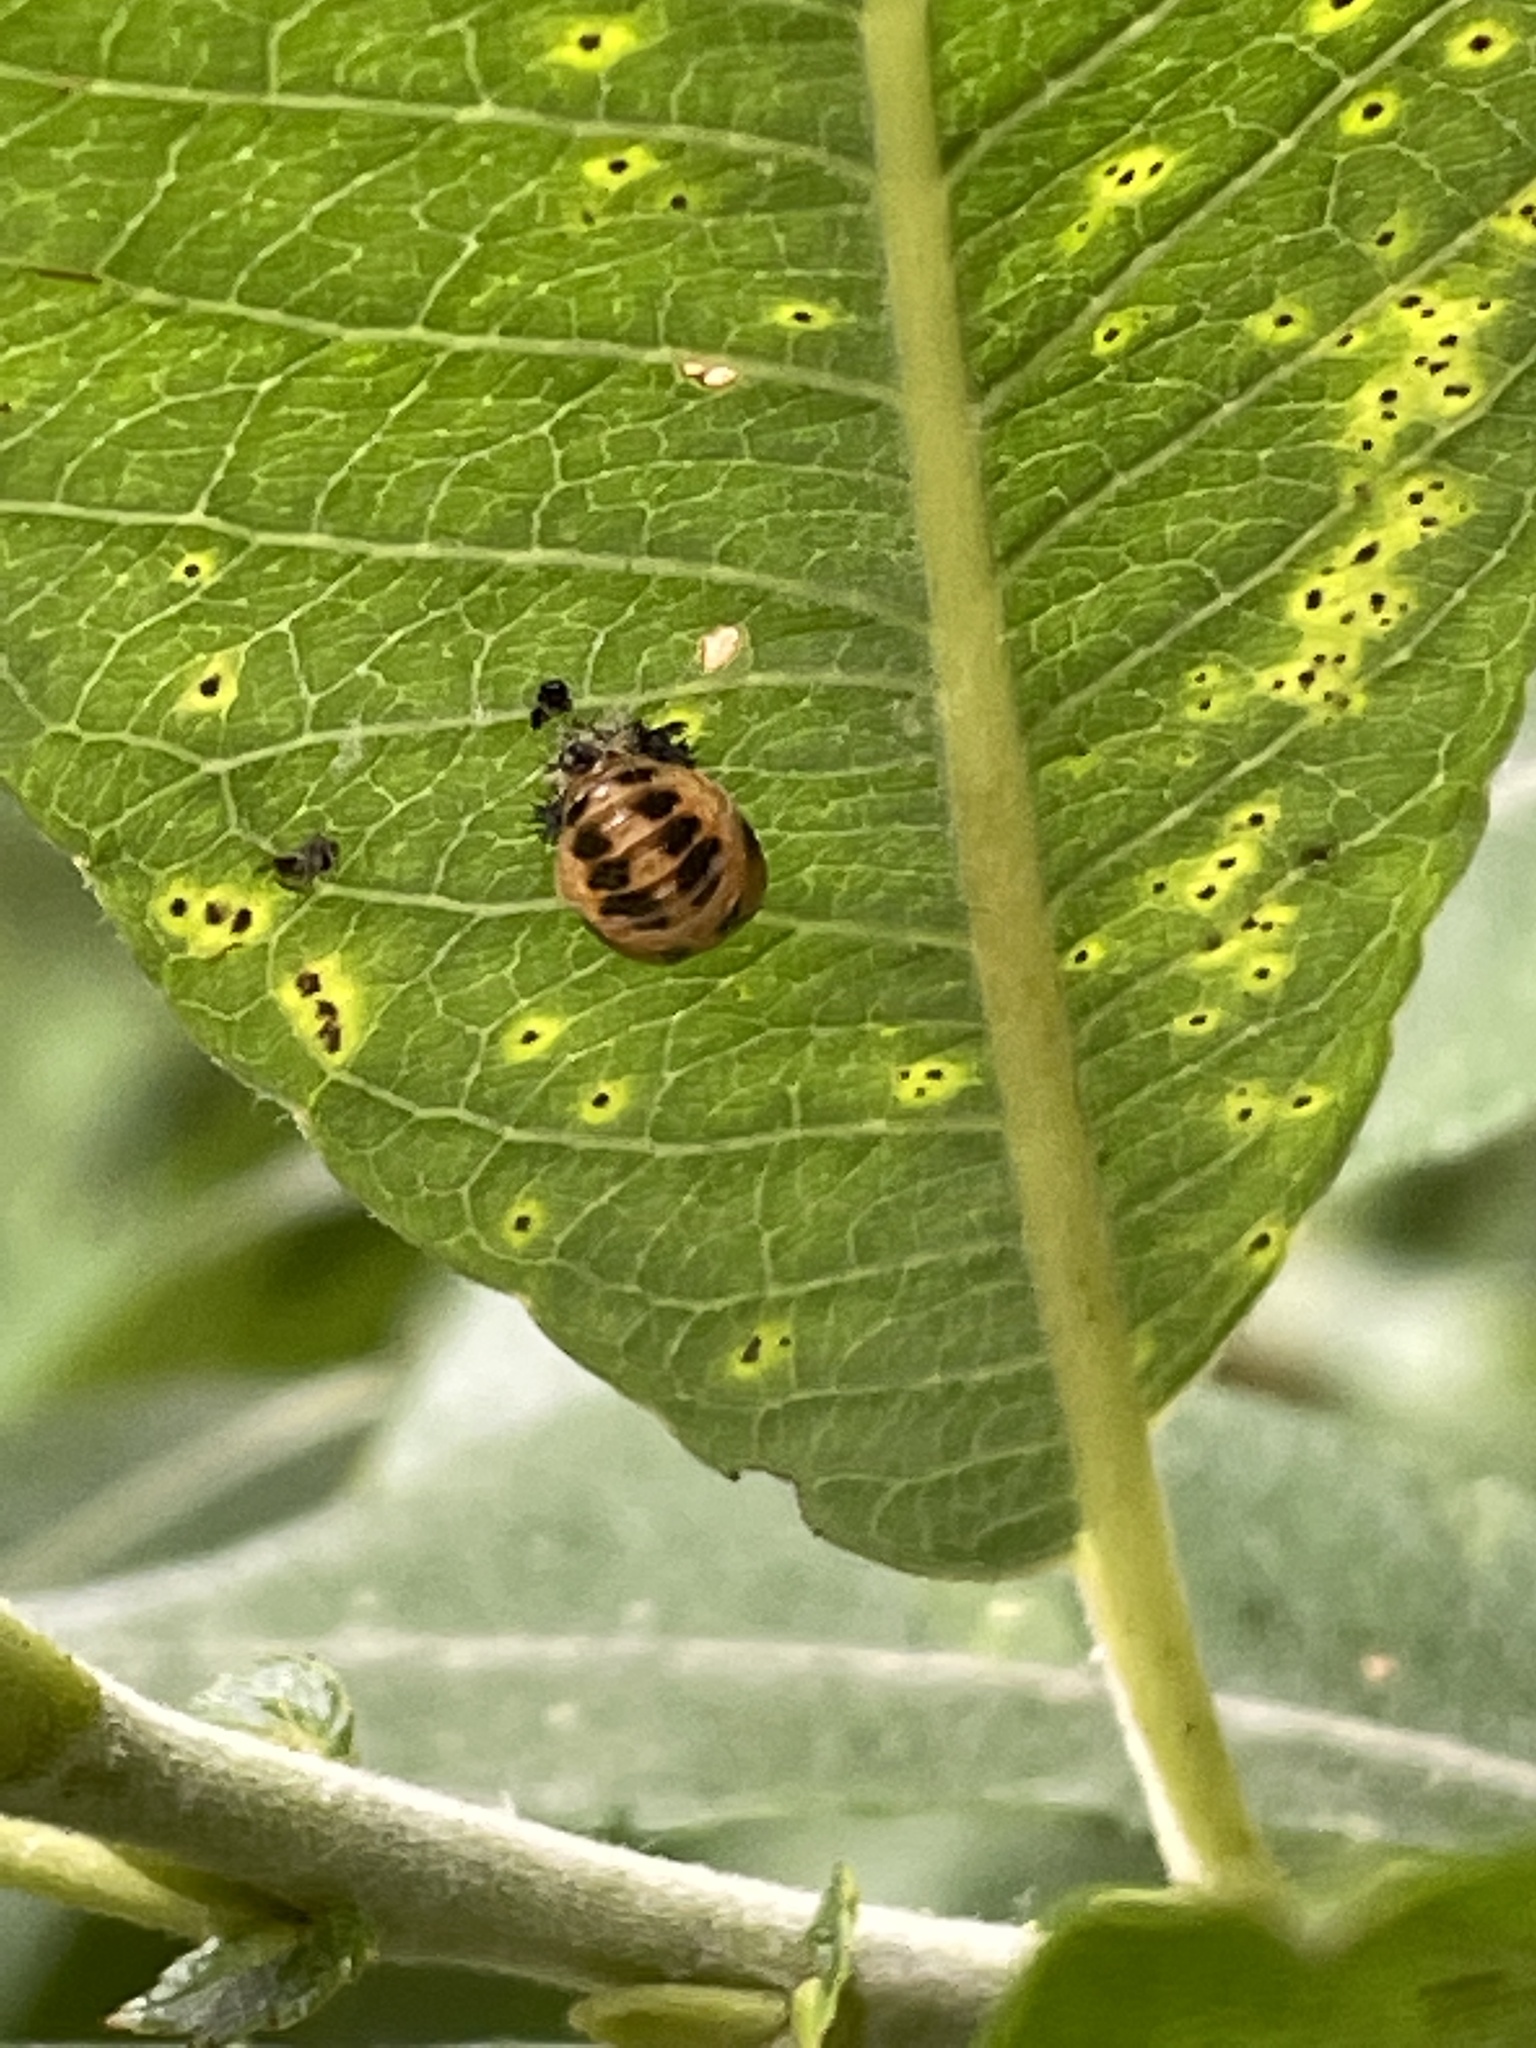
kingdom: Animalia
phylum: Arthropoda
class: Insecta
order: Coleoptera
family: Coccinellidae
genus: Harmonia
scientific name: Harmonia axyridis
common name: Harlequin ladybird
